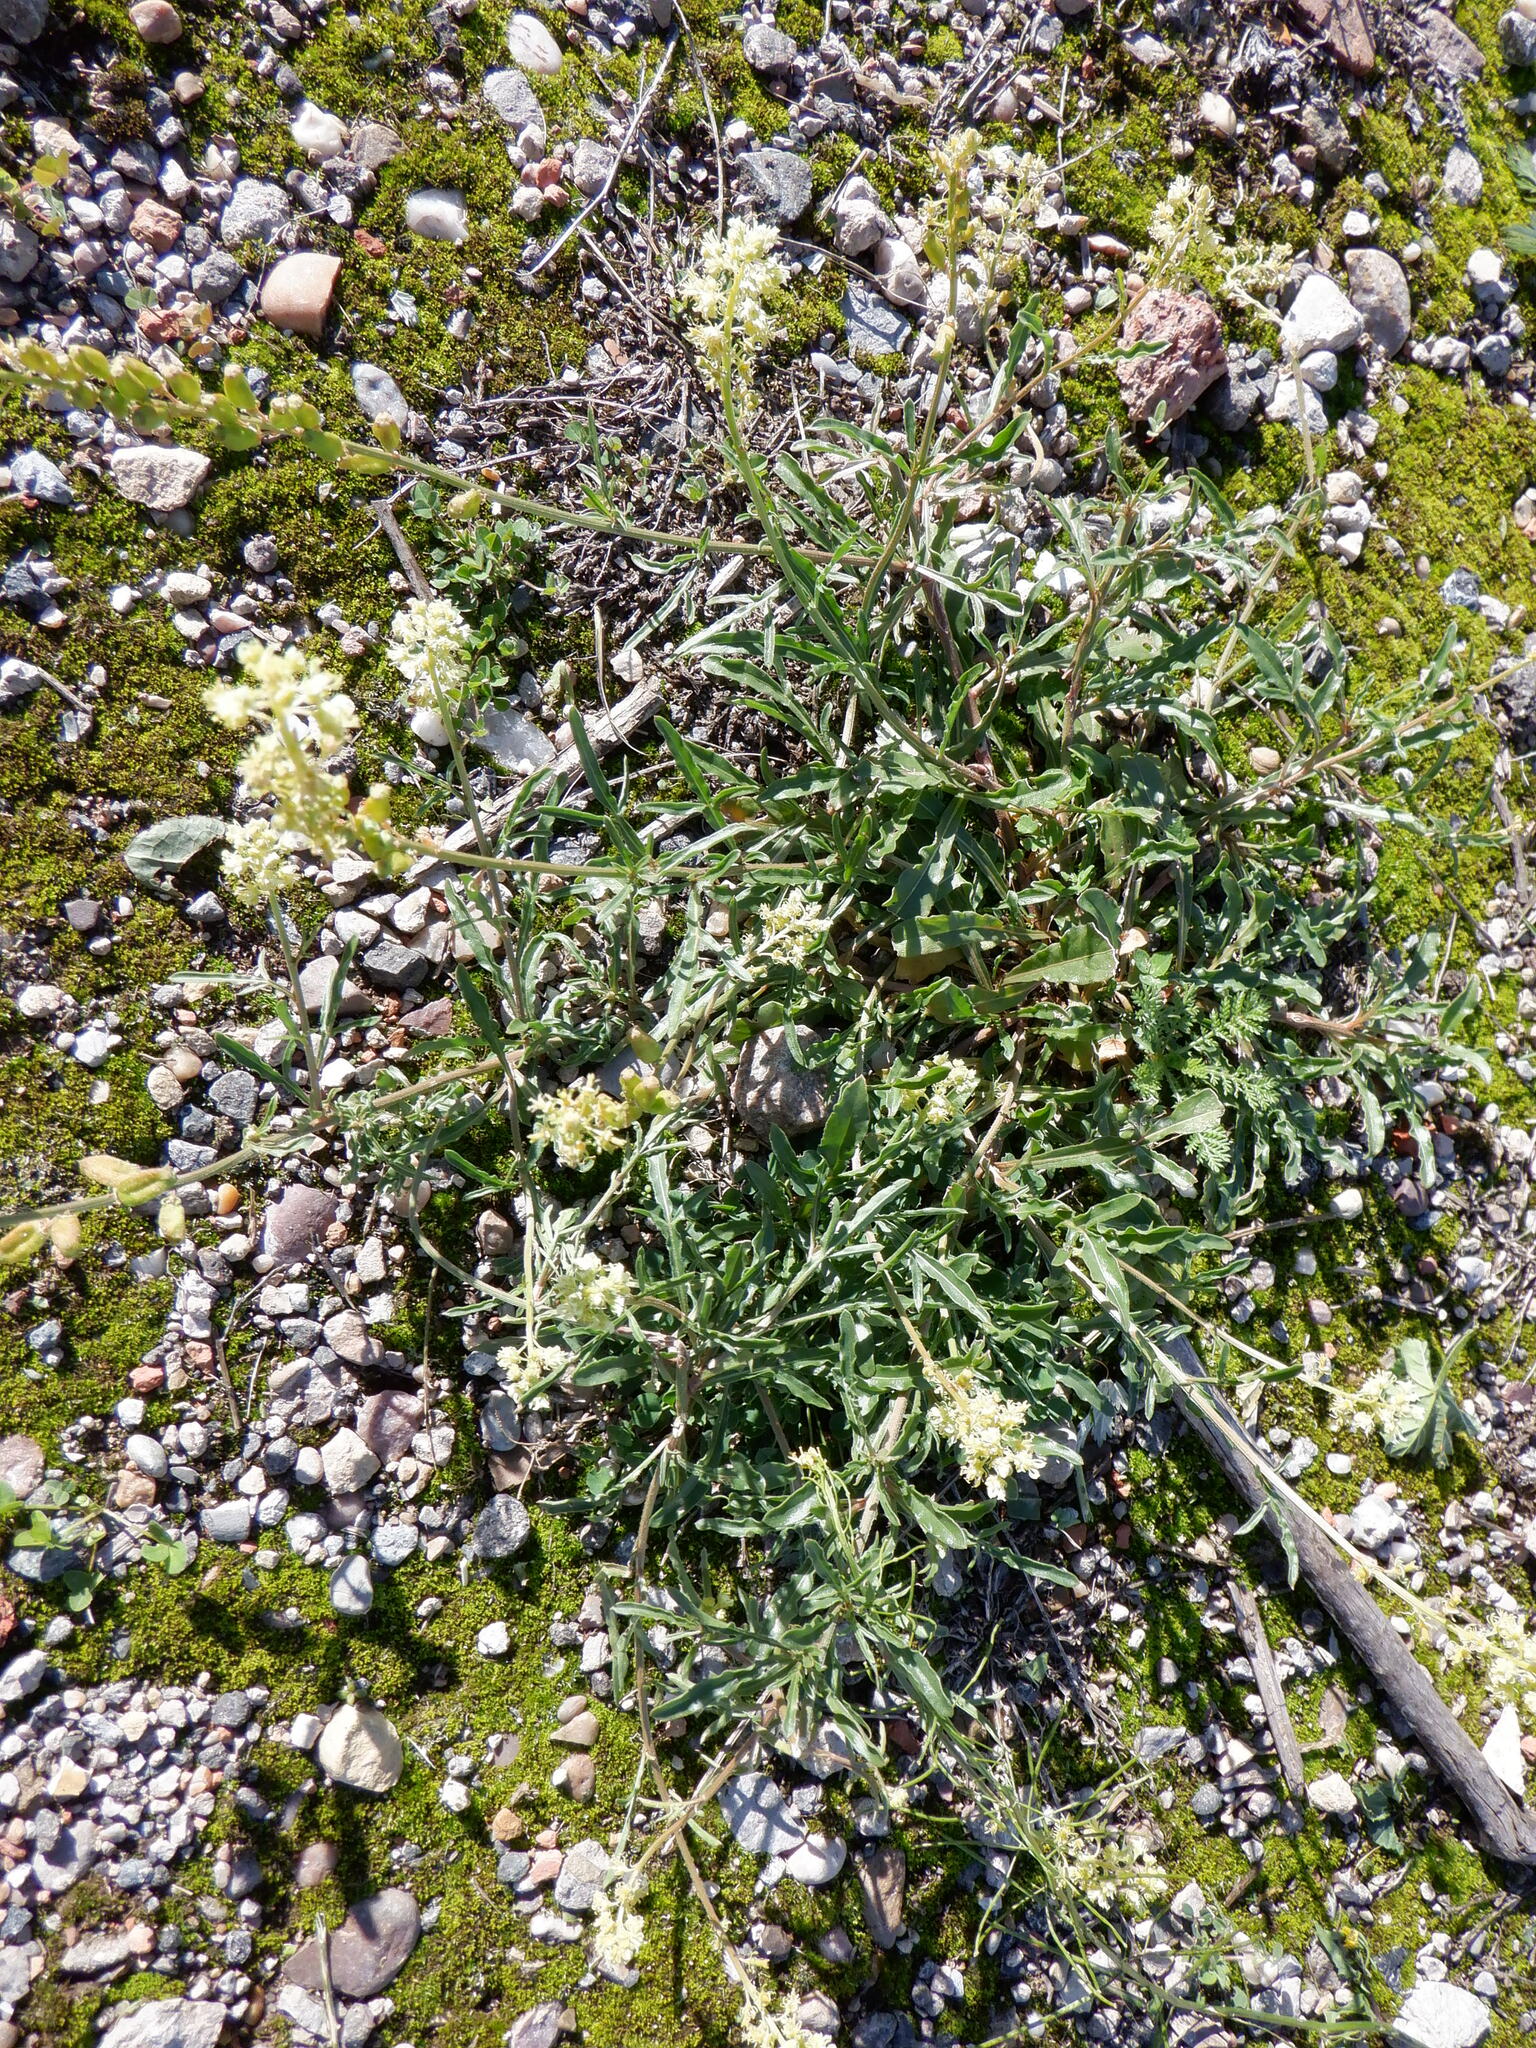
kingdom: Plantae
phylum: Tracheophyta
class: Magnoliopsida
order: Brassicales
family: Resedaceae
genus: Reseda
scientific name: Reseda lutea
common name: Wild mignonette
